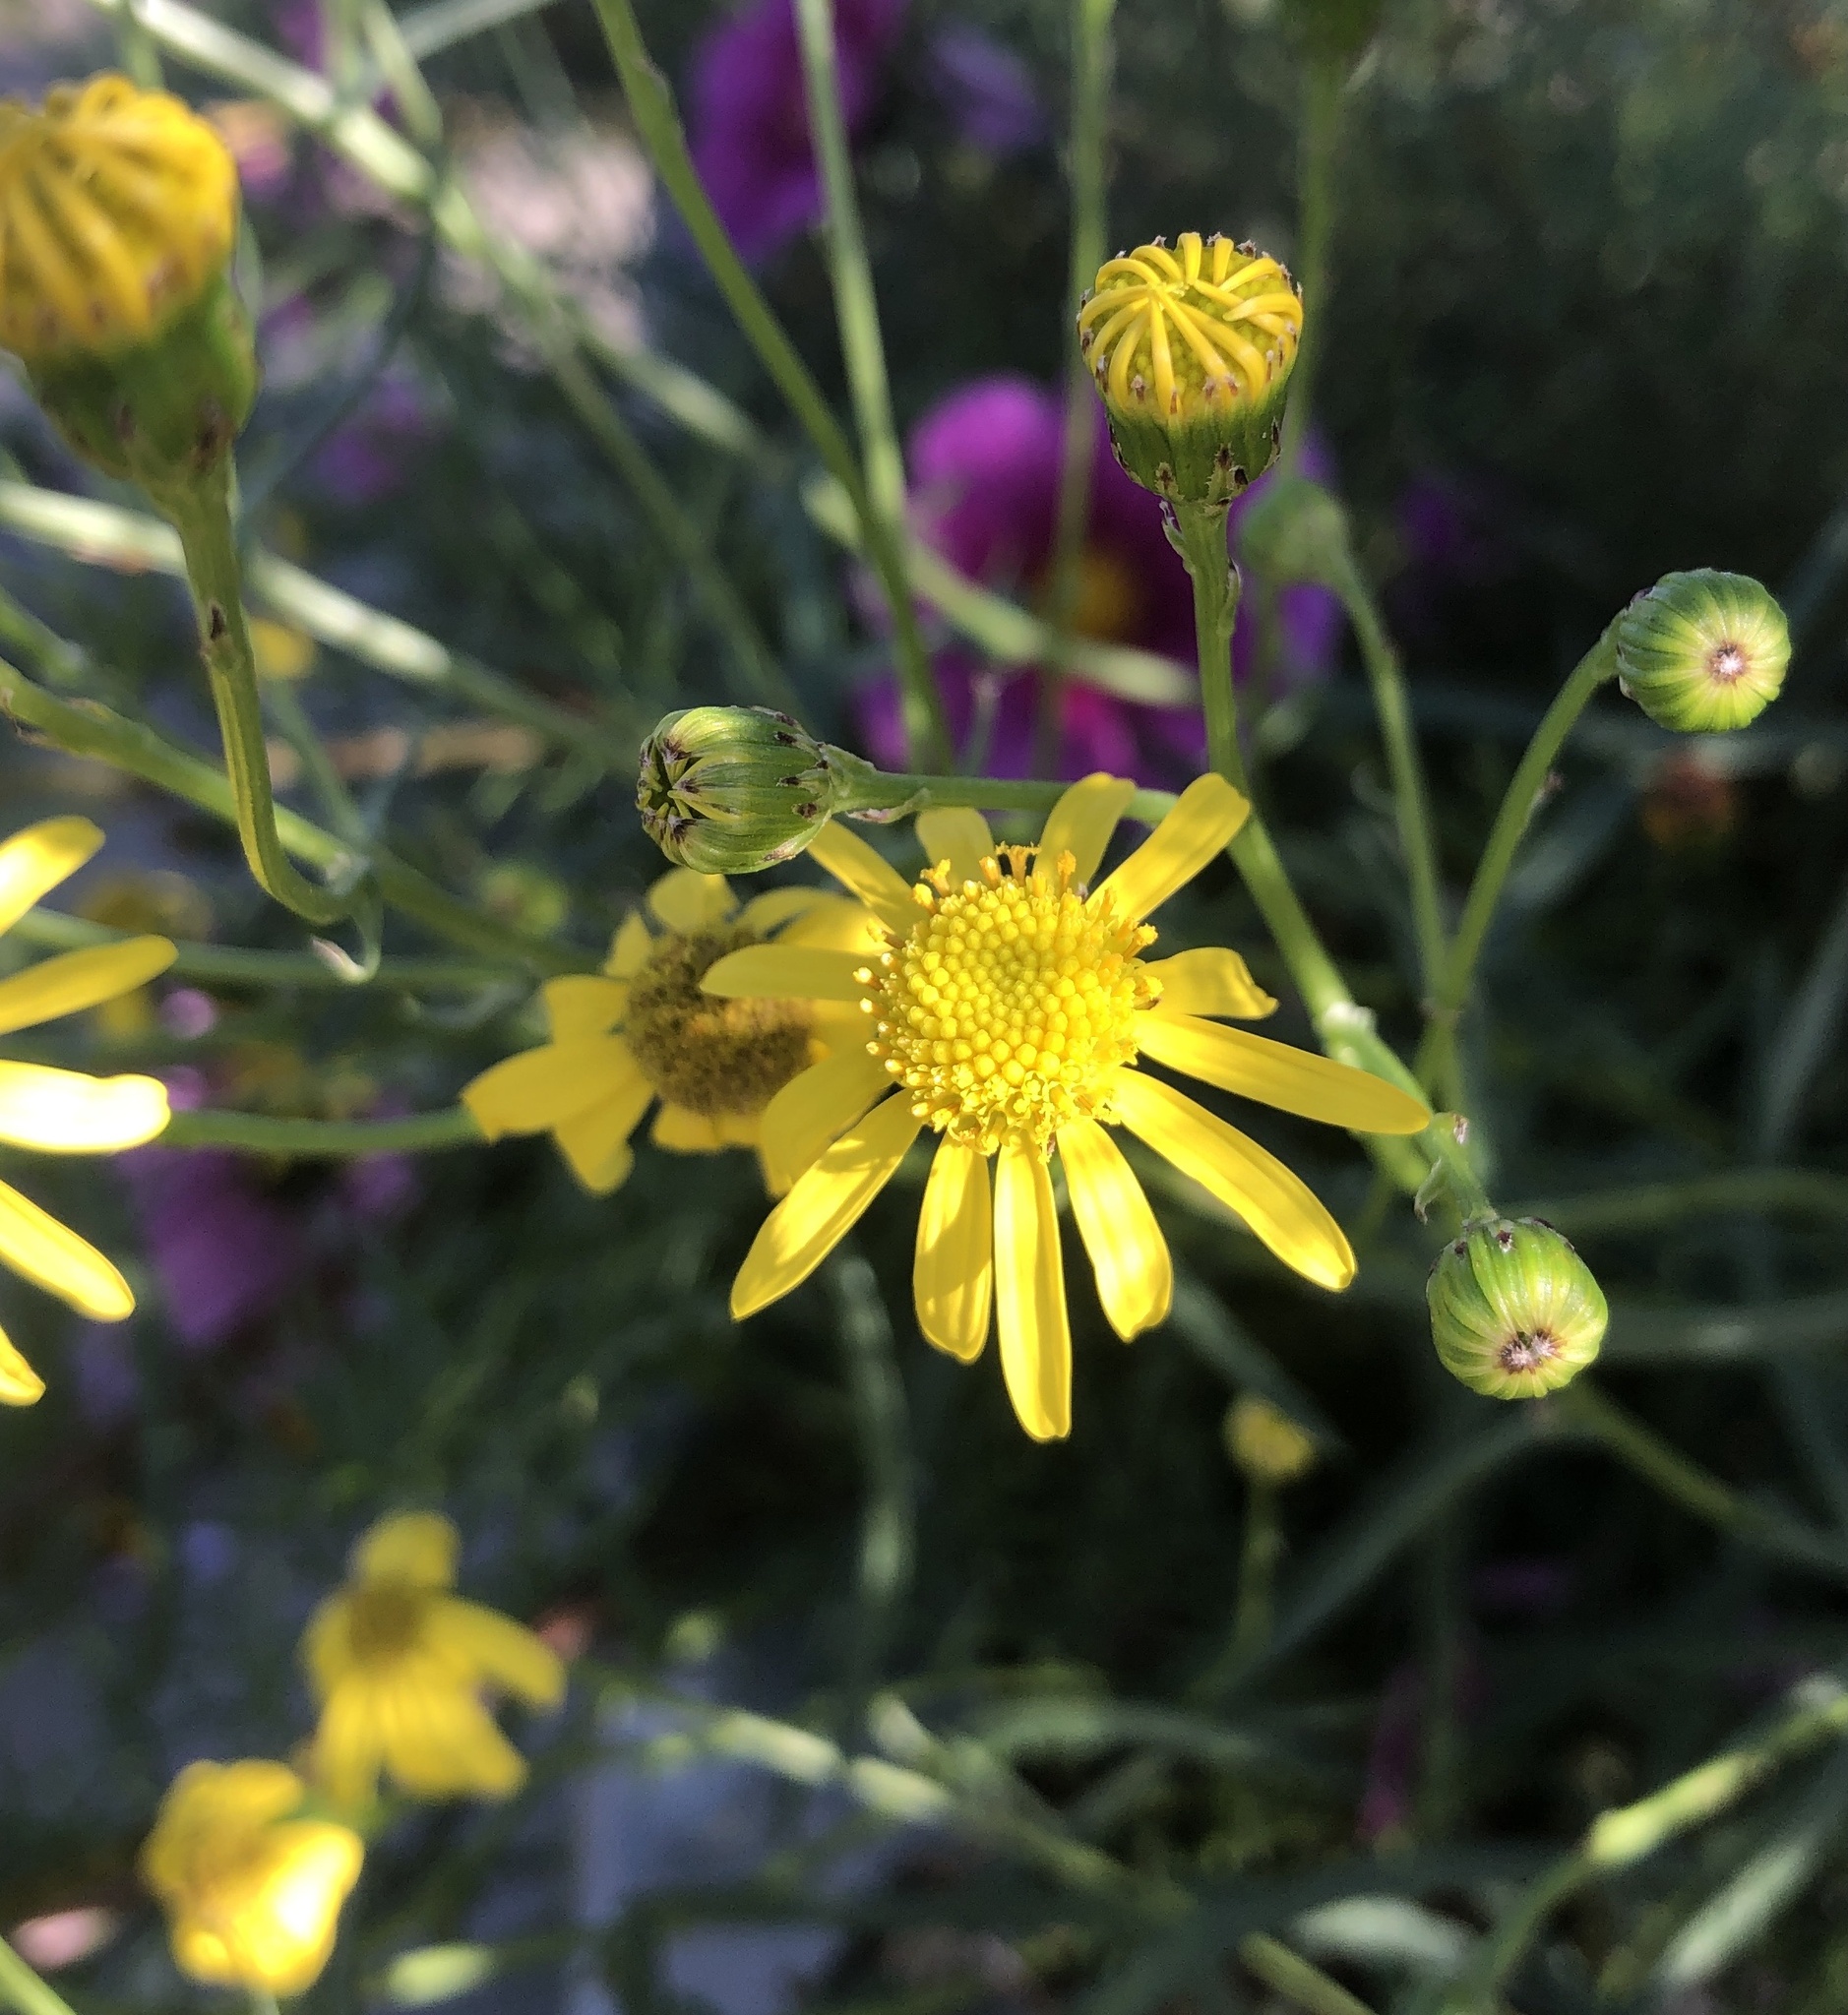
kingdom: Plantae
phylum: Tracheophyta
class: Magnoliopsida
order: Asterales
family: Asteraceae
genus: Senecio
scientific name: Senecio inaequidens
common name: Narrow-leaved ragwort
